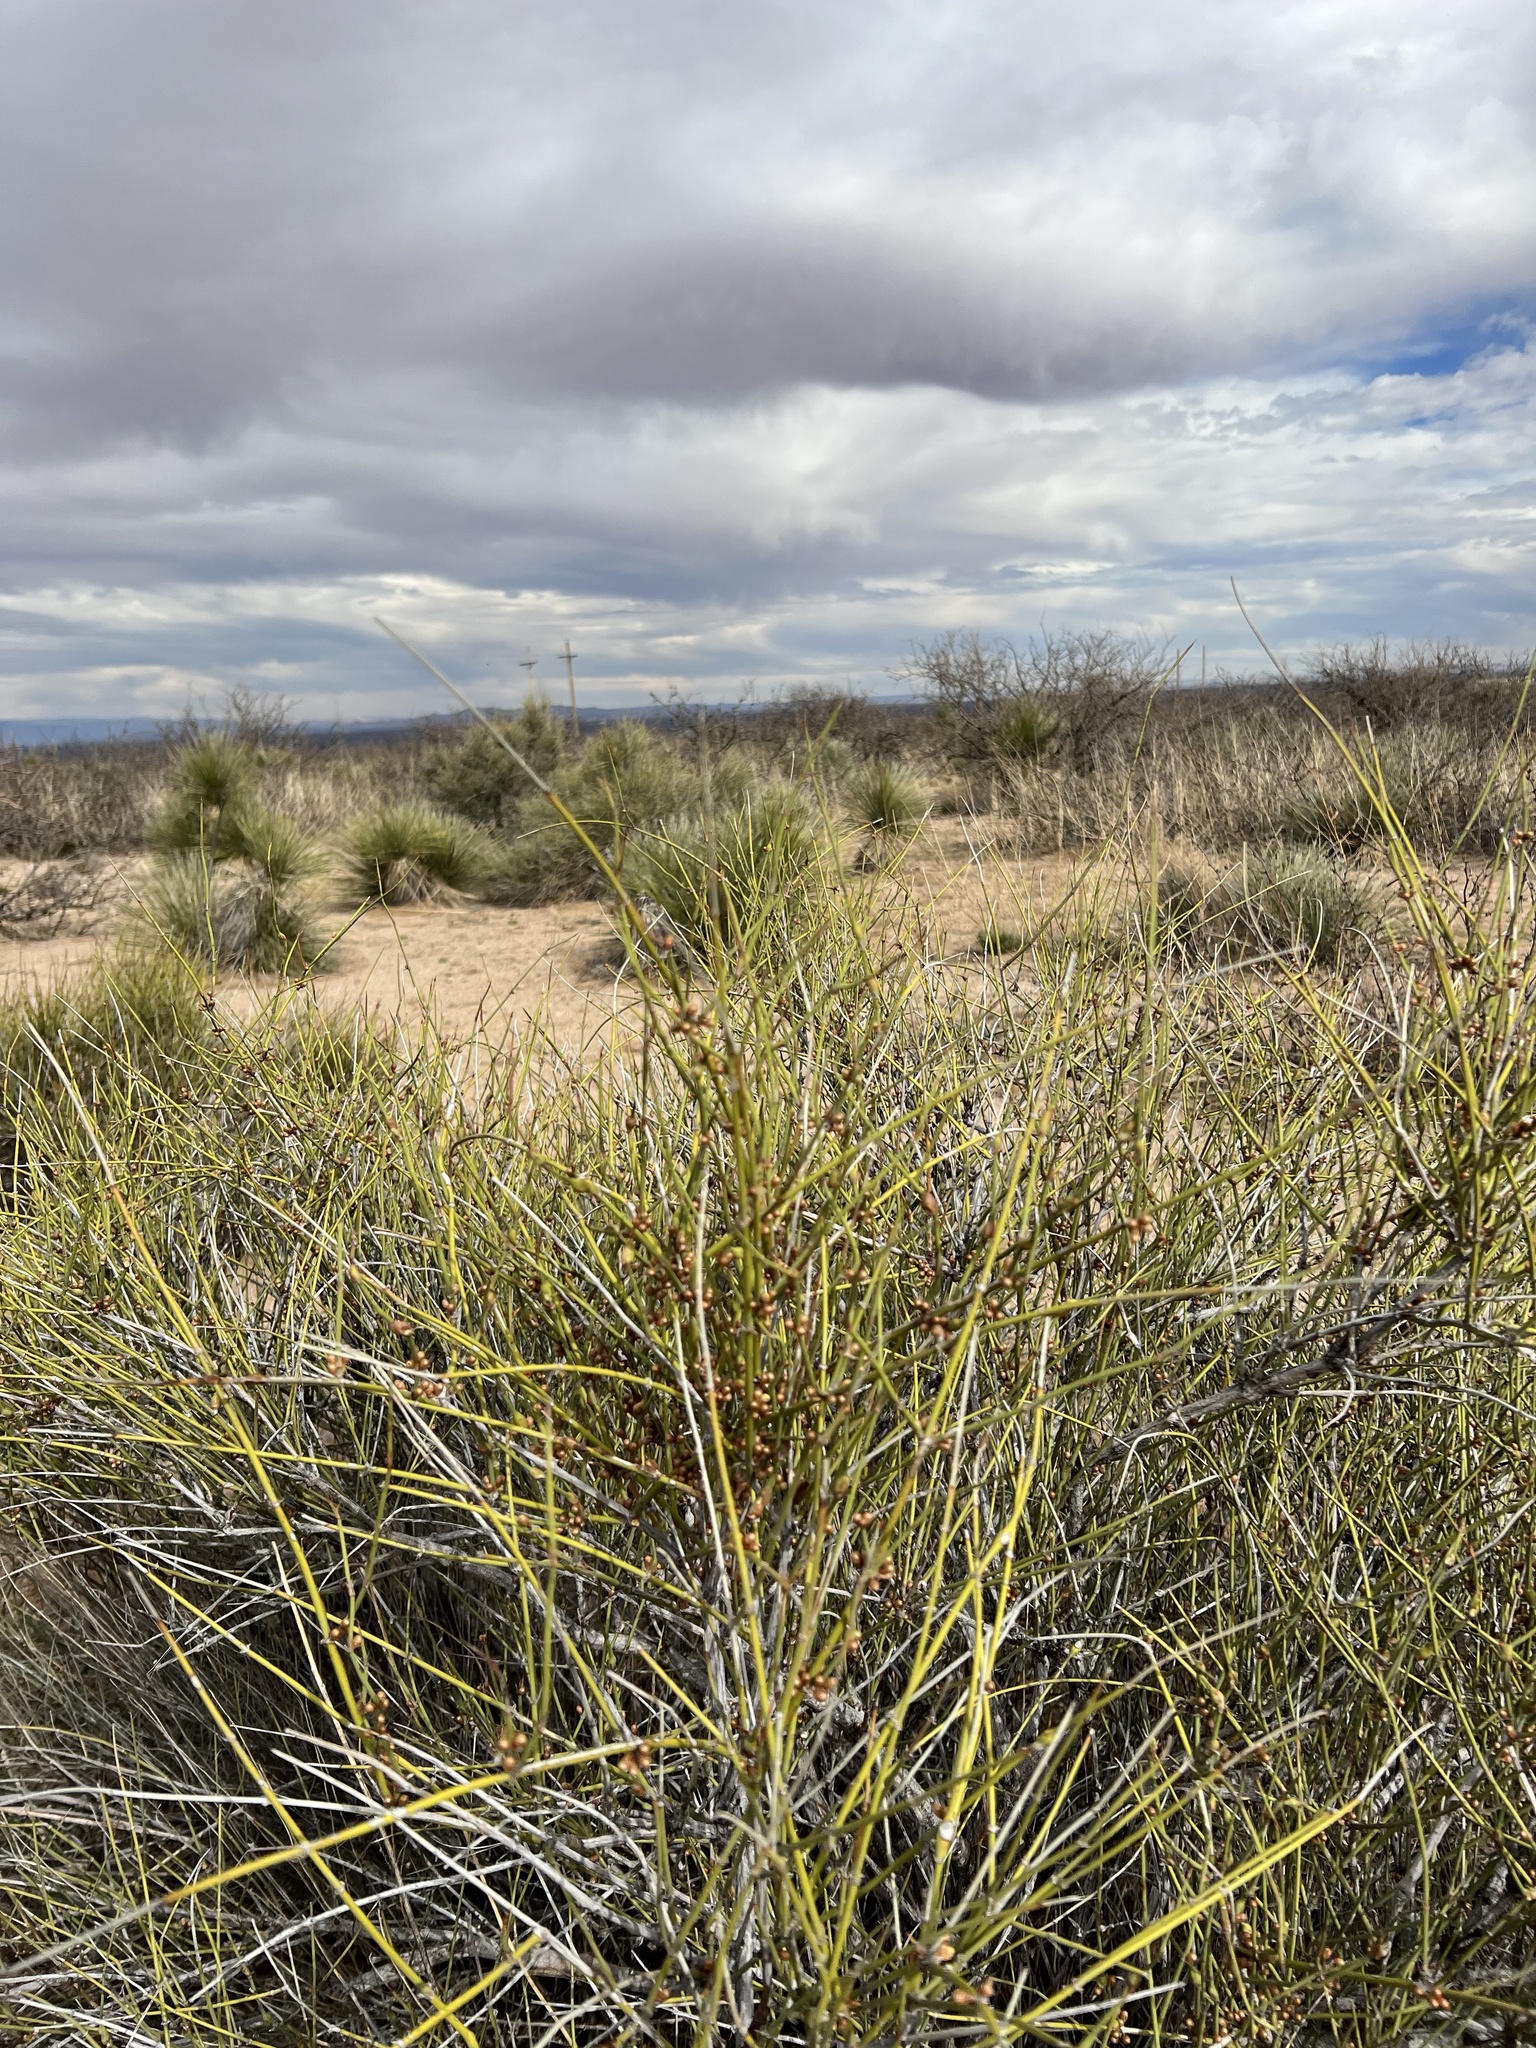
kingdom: Plantae
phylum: Tracheophyta
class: Gnetopsida
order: Ephedrales
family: Ephedraceae
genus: Ephedra
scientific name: Ephedra trifurca
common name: Mexican-tea
